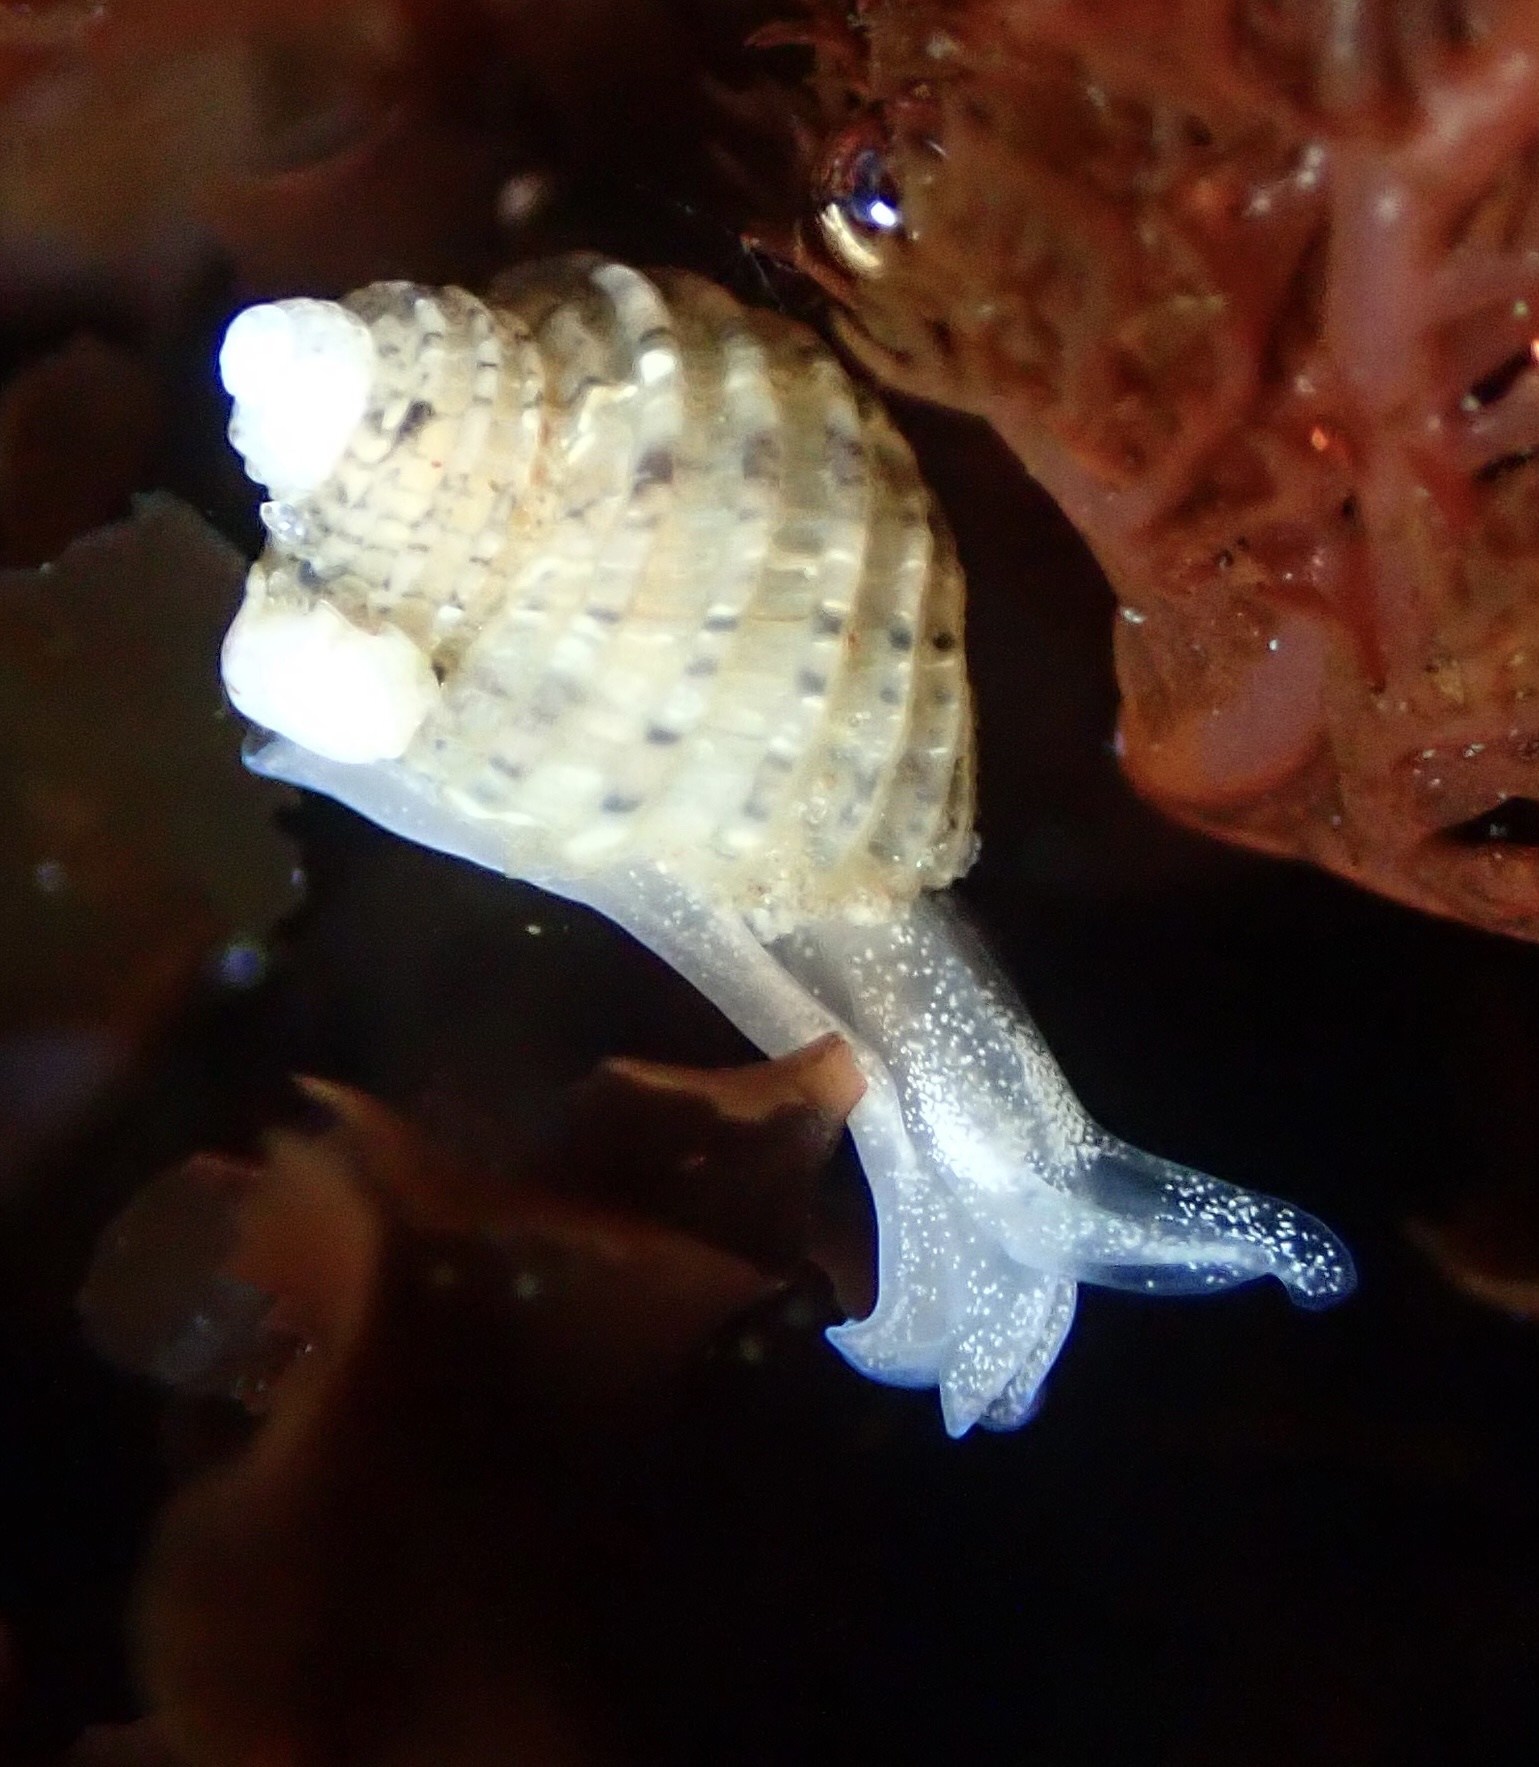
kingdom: Animalia
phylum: Mollusca
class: Gastropoda
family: Amathinidae
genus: Iselica
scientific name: Iselica ovoidea
